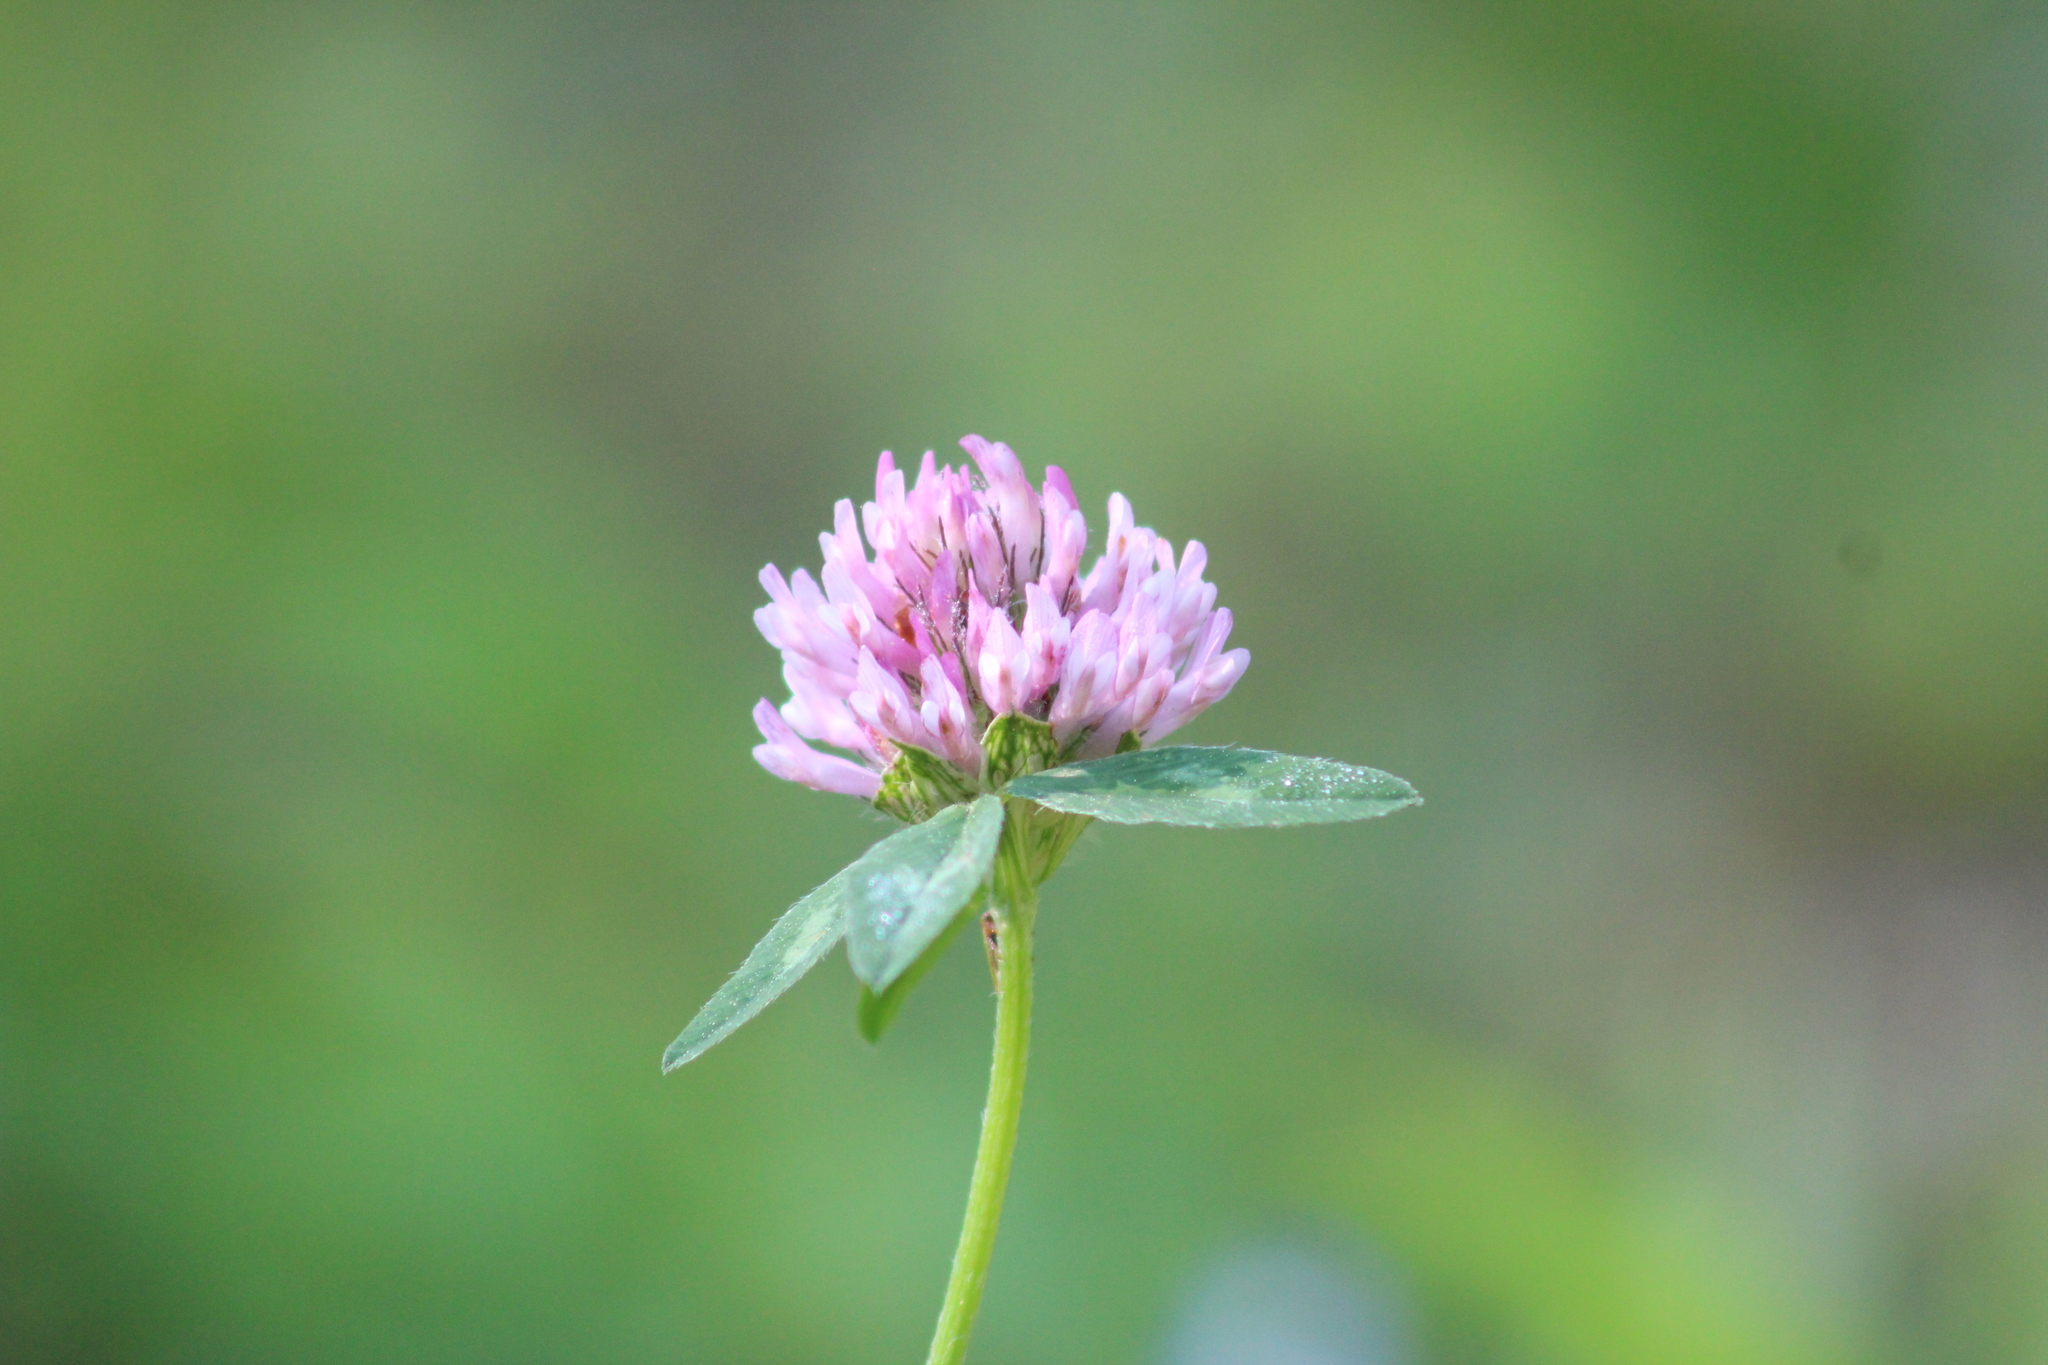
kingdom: Plantae
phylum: Tracheophyta
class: Magnoliopsida
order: Fabales
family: Fabaceae
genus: Trifolium
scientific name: Trifolium pratense
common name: Red clover
